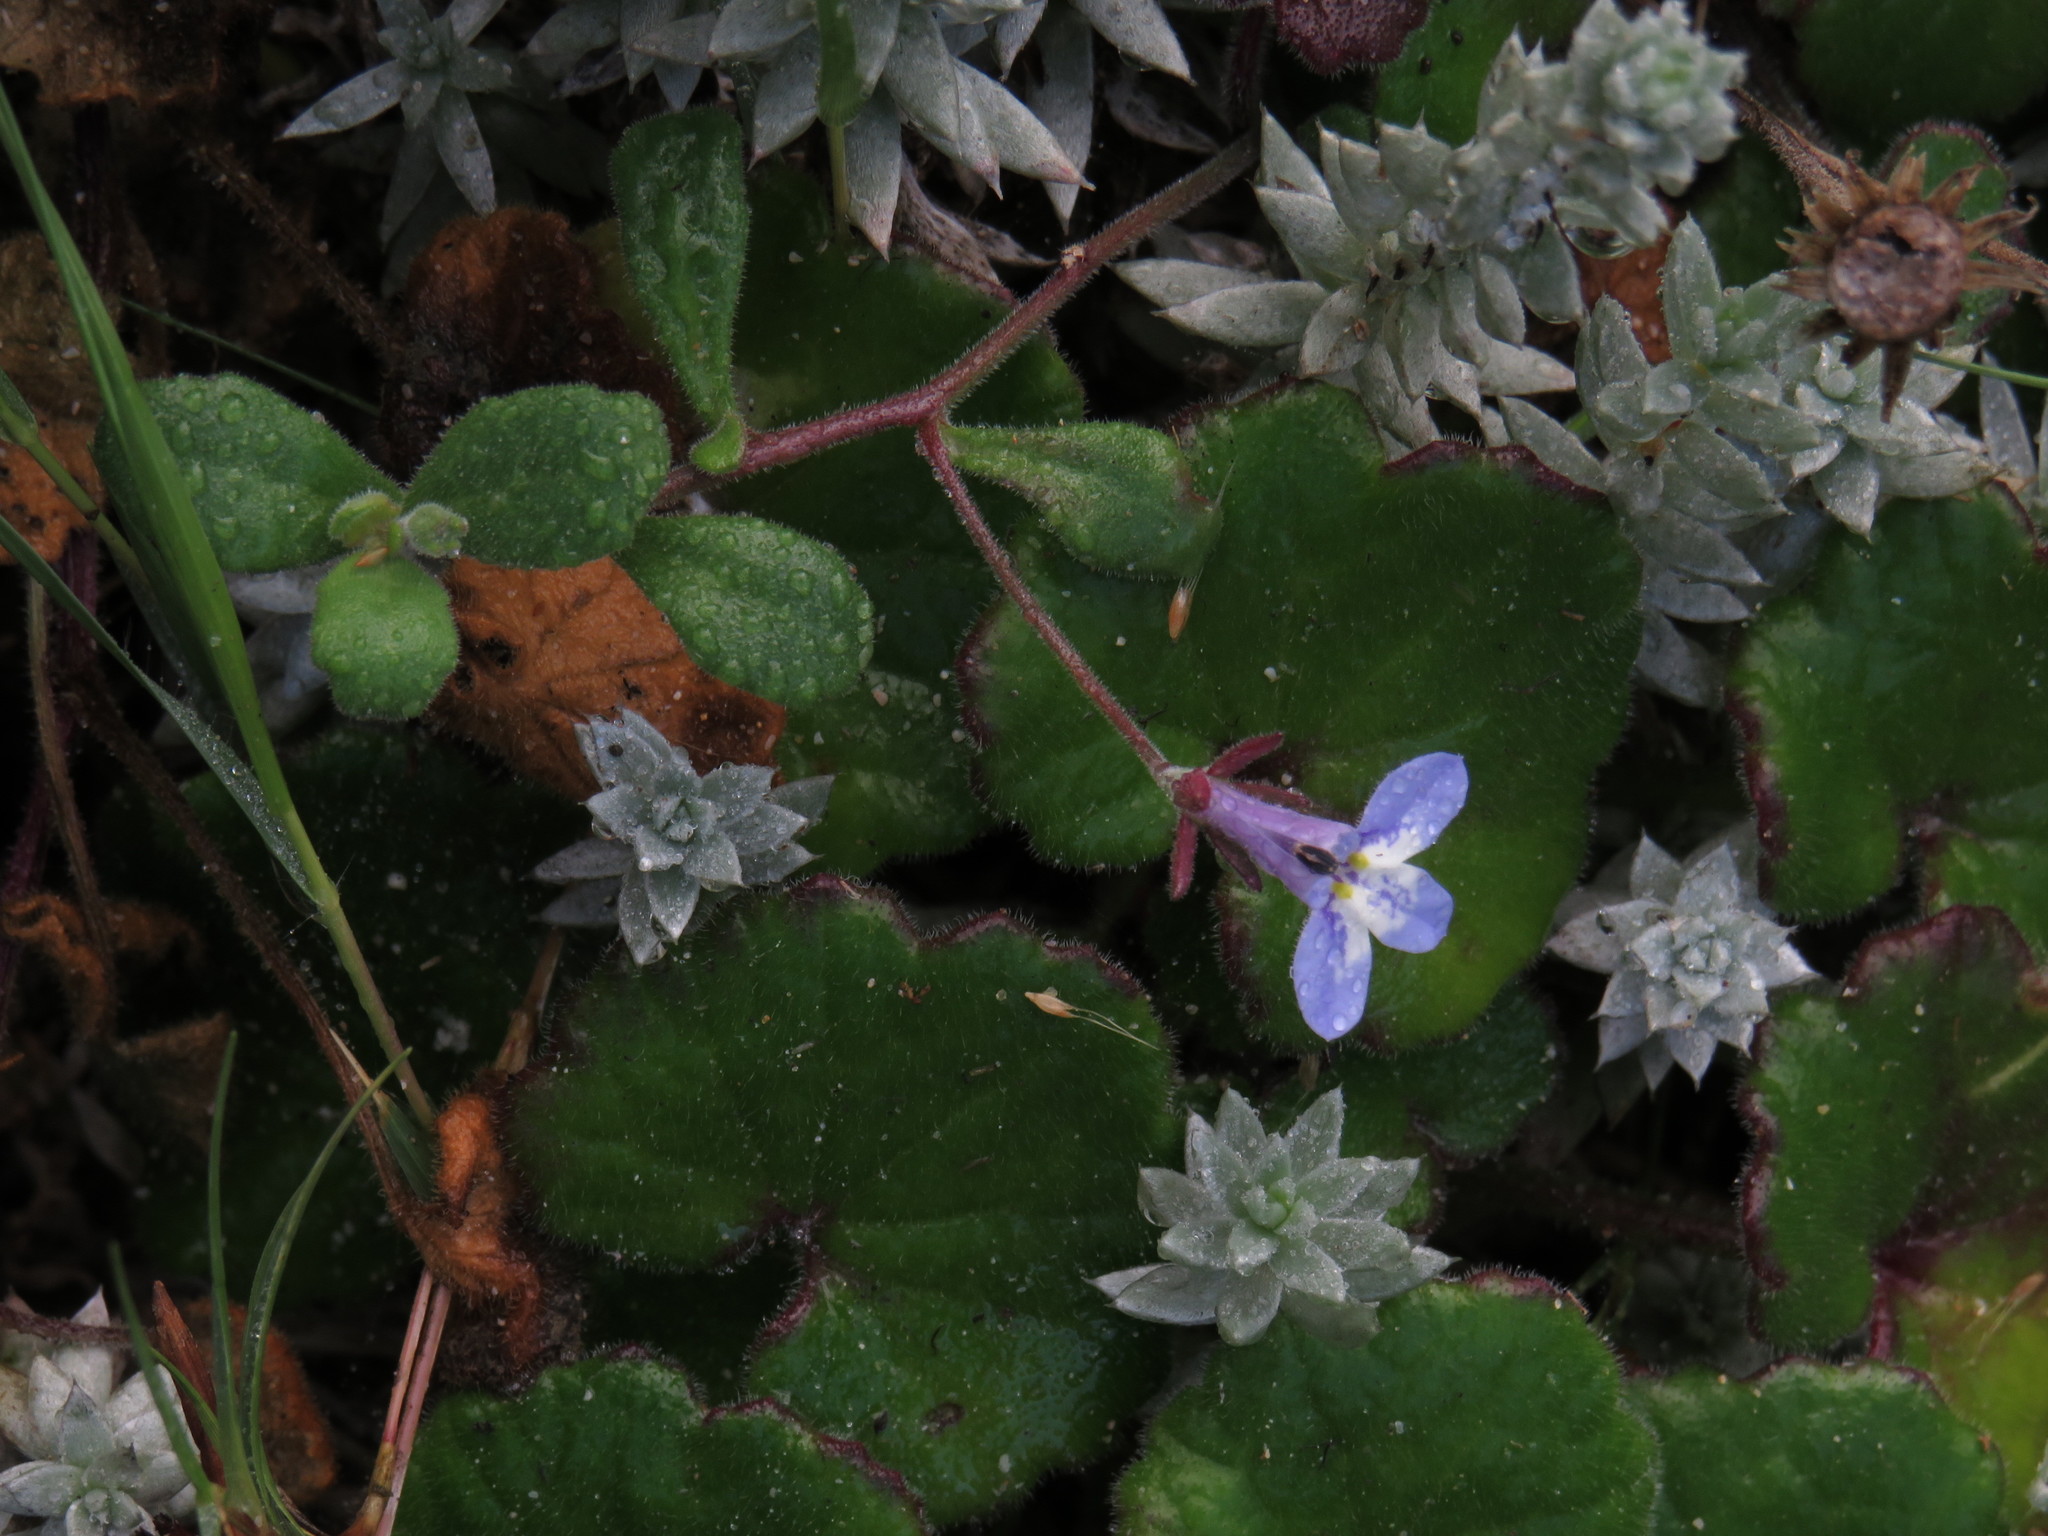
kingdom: Plantae
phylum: Tracheophyta
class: Magnoliopsida
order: Asterales
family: Campanulaceae
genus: Lobelia
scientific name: Lobelia boivinii
